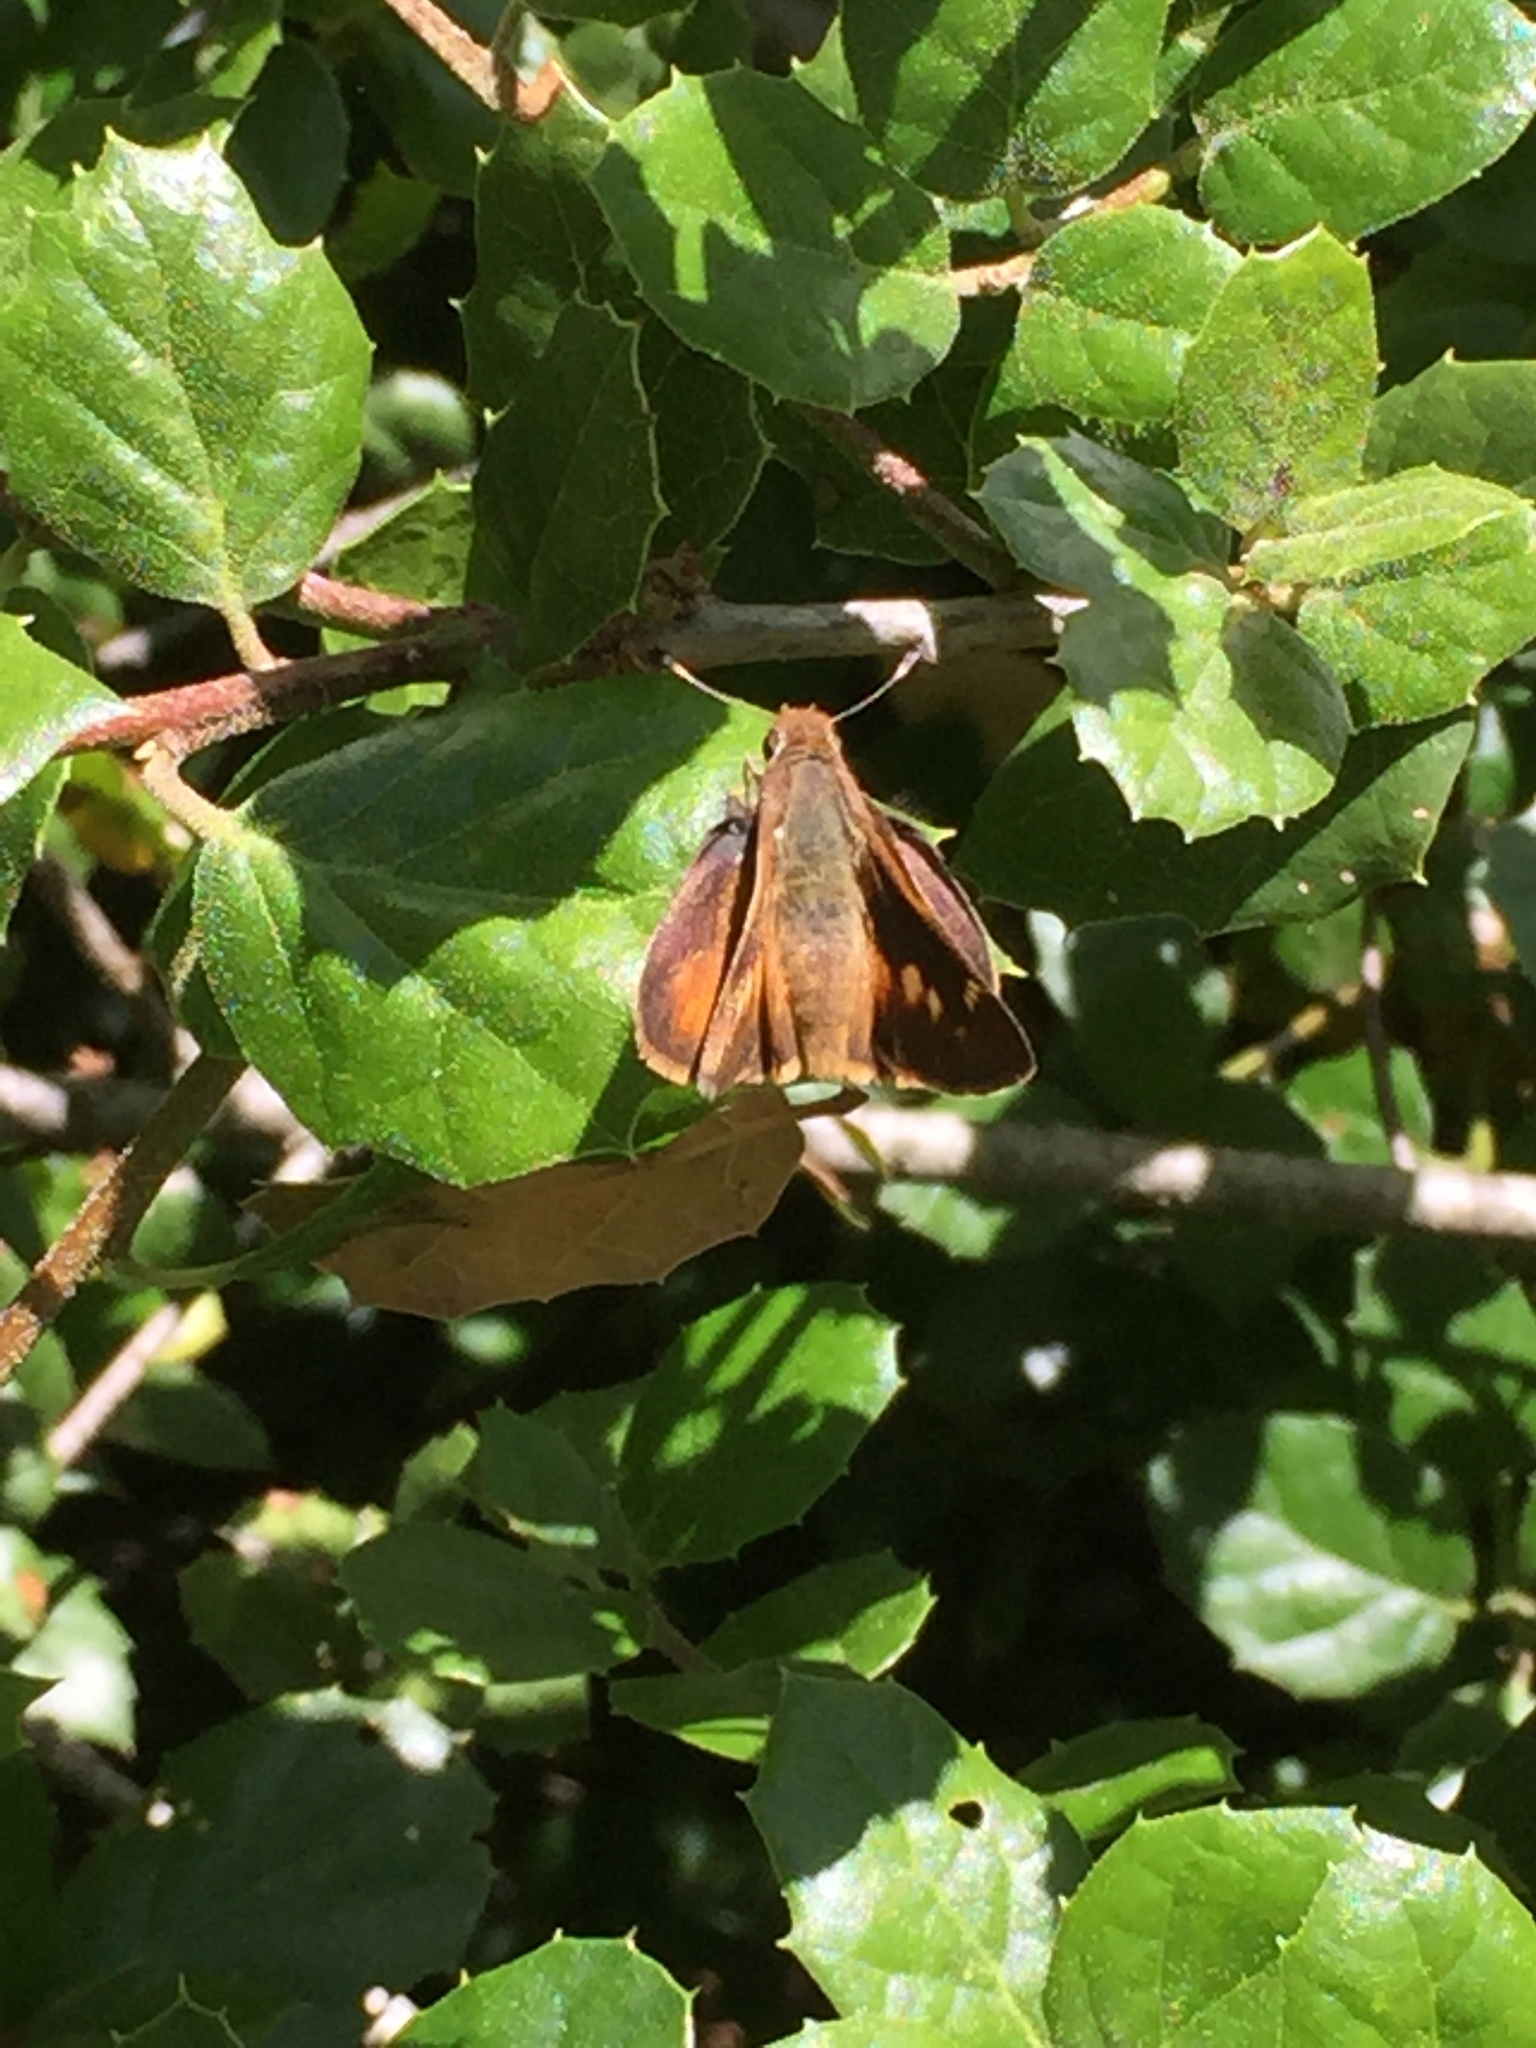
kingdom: Animalia
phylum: Arthropoda
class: Insecta
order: Lepidoptera
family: Hesperiidae
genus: Lon
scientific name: Lon melane
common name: Umber skipper
